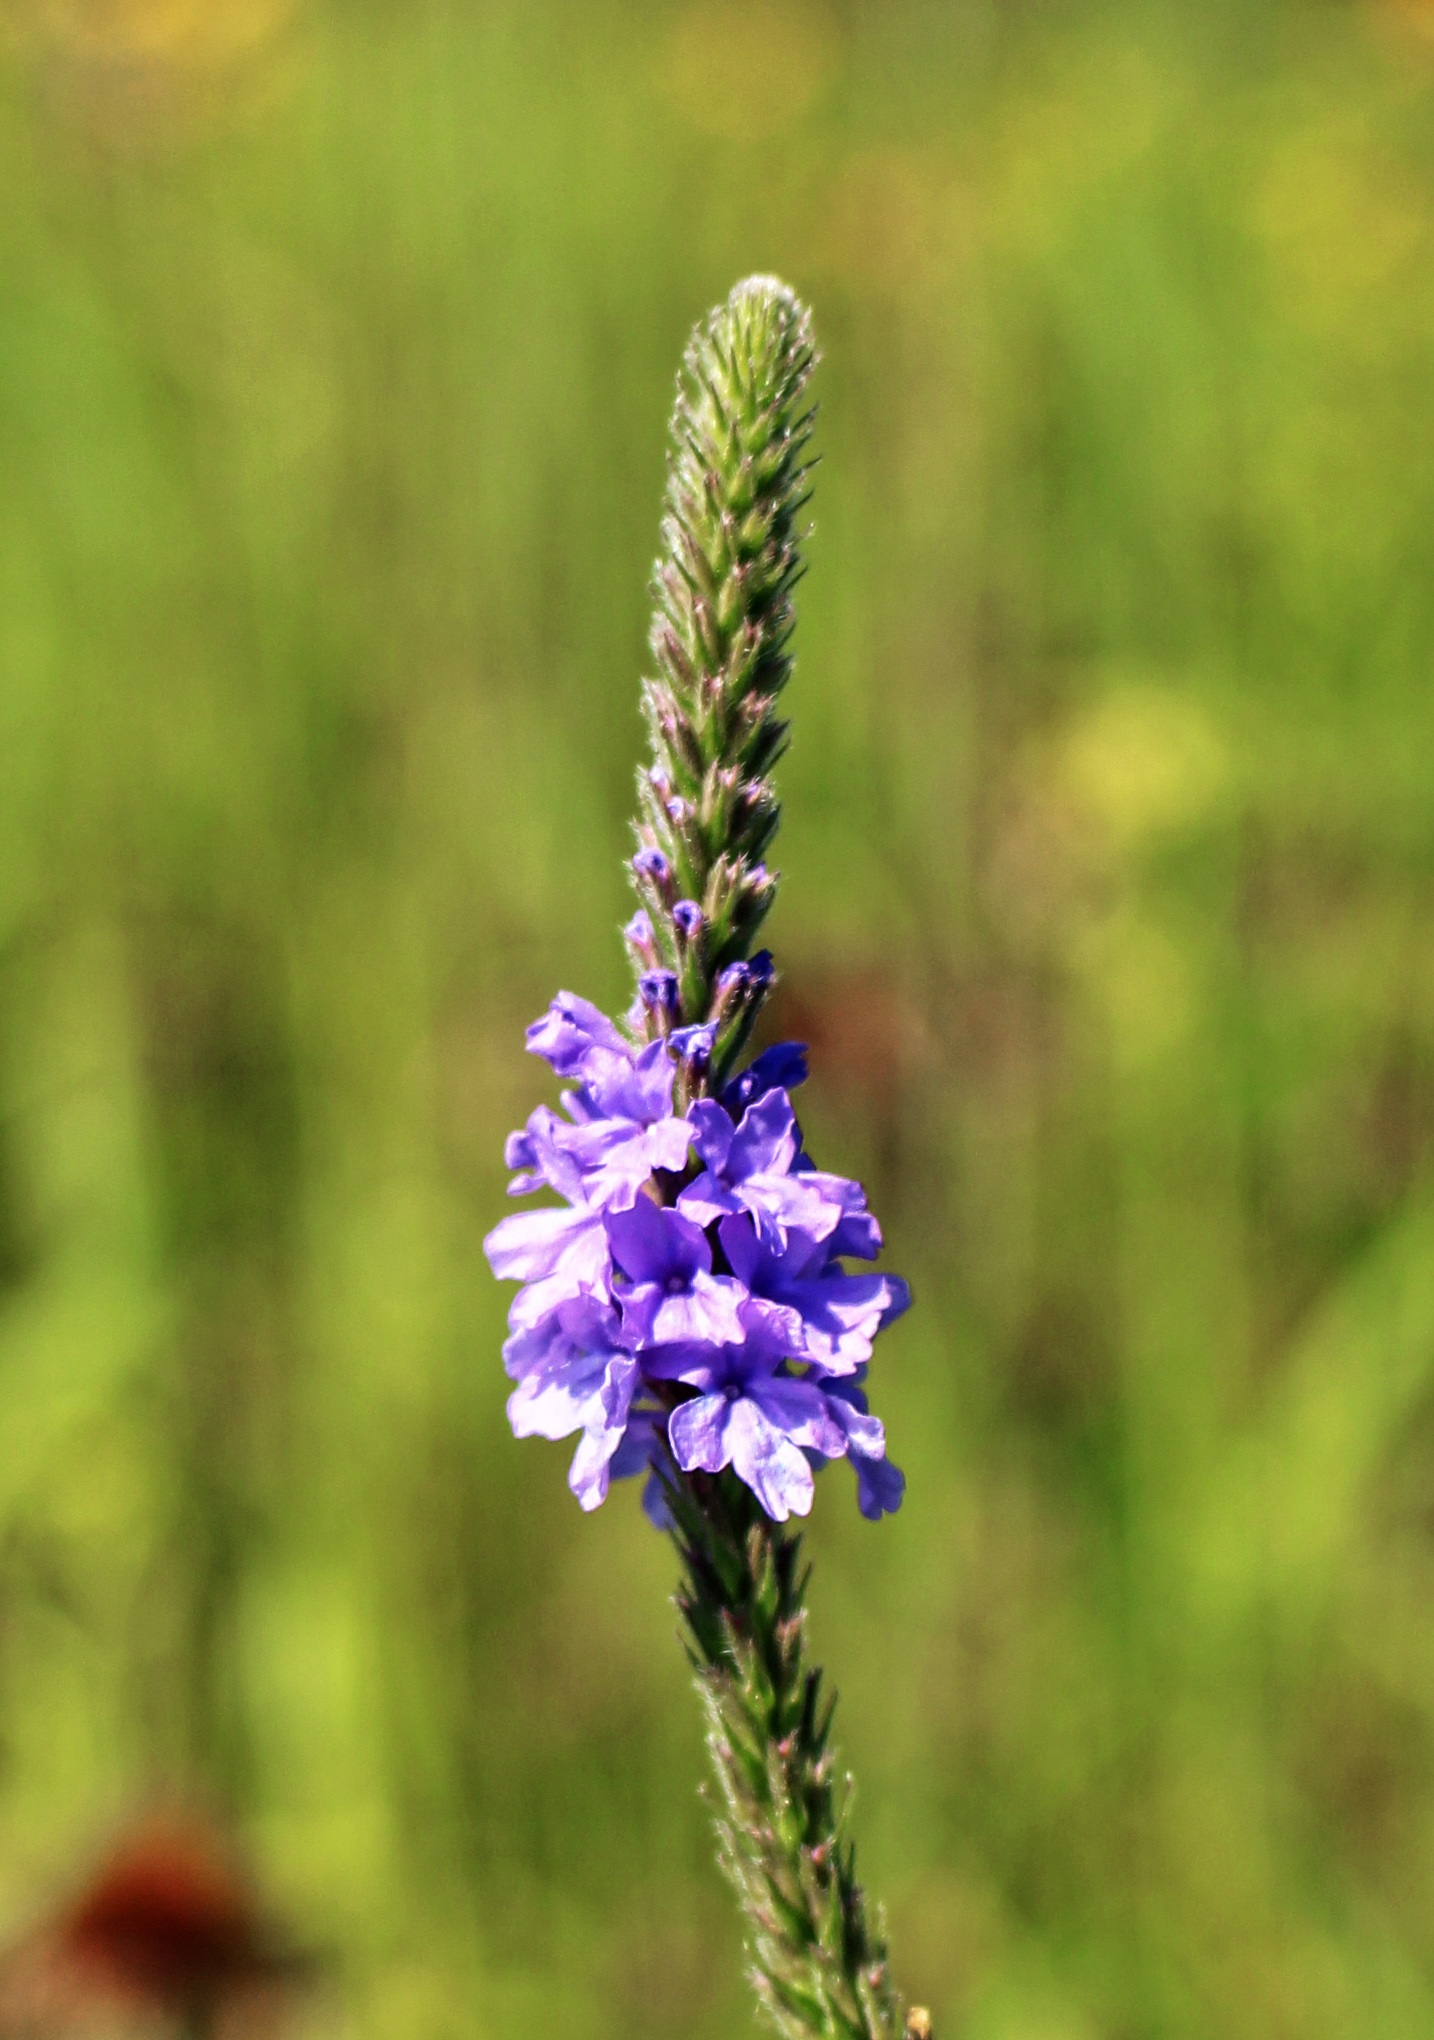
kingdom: Plantae
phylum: Tracheophyta
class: Magnoliopsida
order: Lamiales
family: Verbenaceae
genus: Verbena
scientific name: Verbena stricta
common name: Hoary vervain
